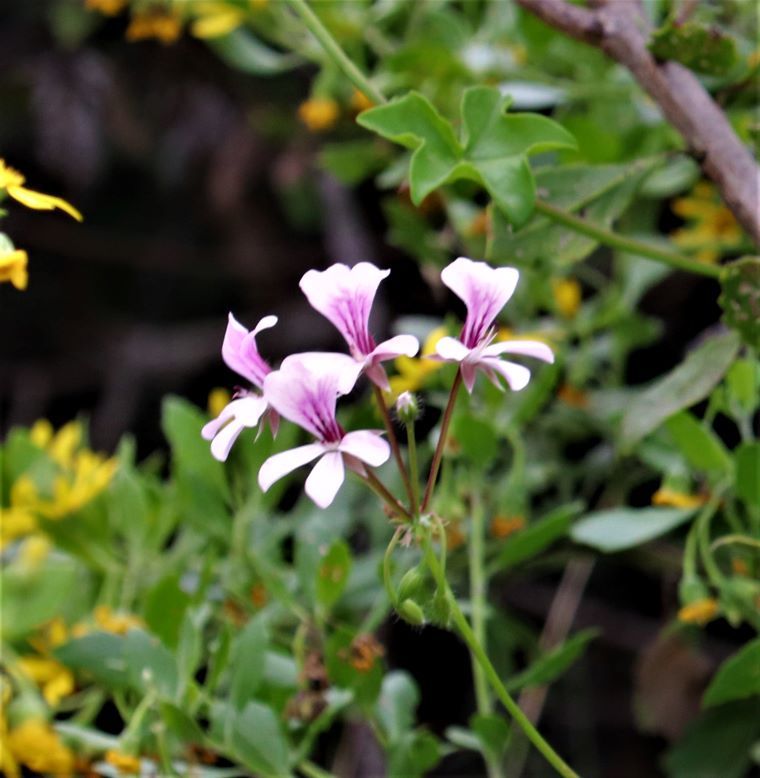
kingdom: Plantae
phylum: Tracheophyta
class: Magnoliopsida
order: Geraniales
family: Geraniaceae
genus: Pelargonium
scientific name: Pelargonium peltatum
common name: Ivyleaf geranium
